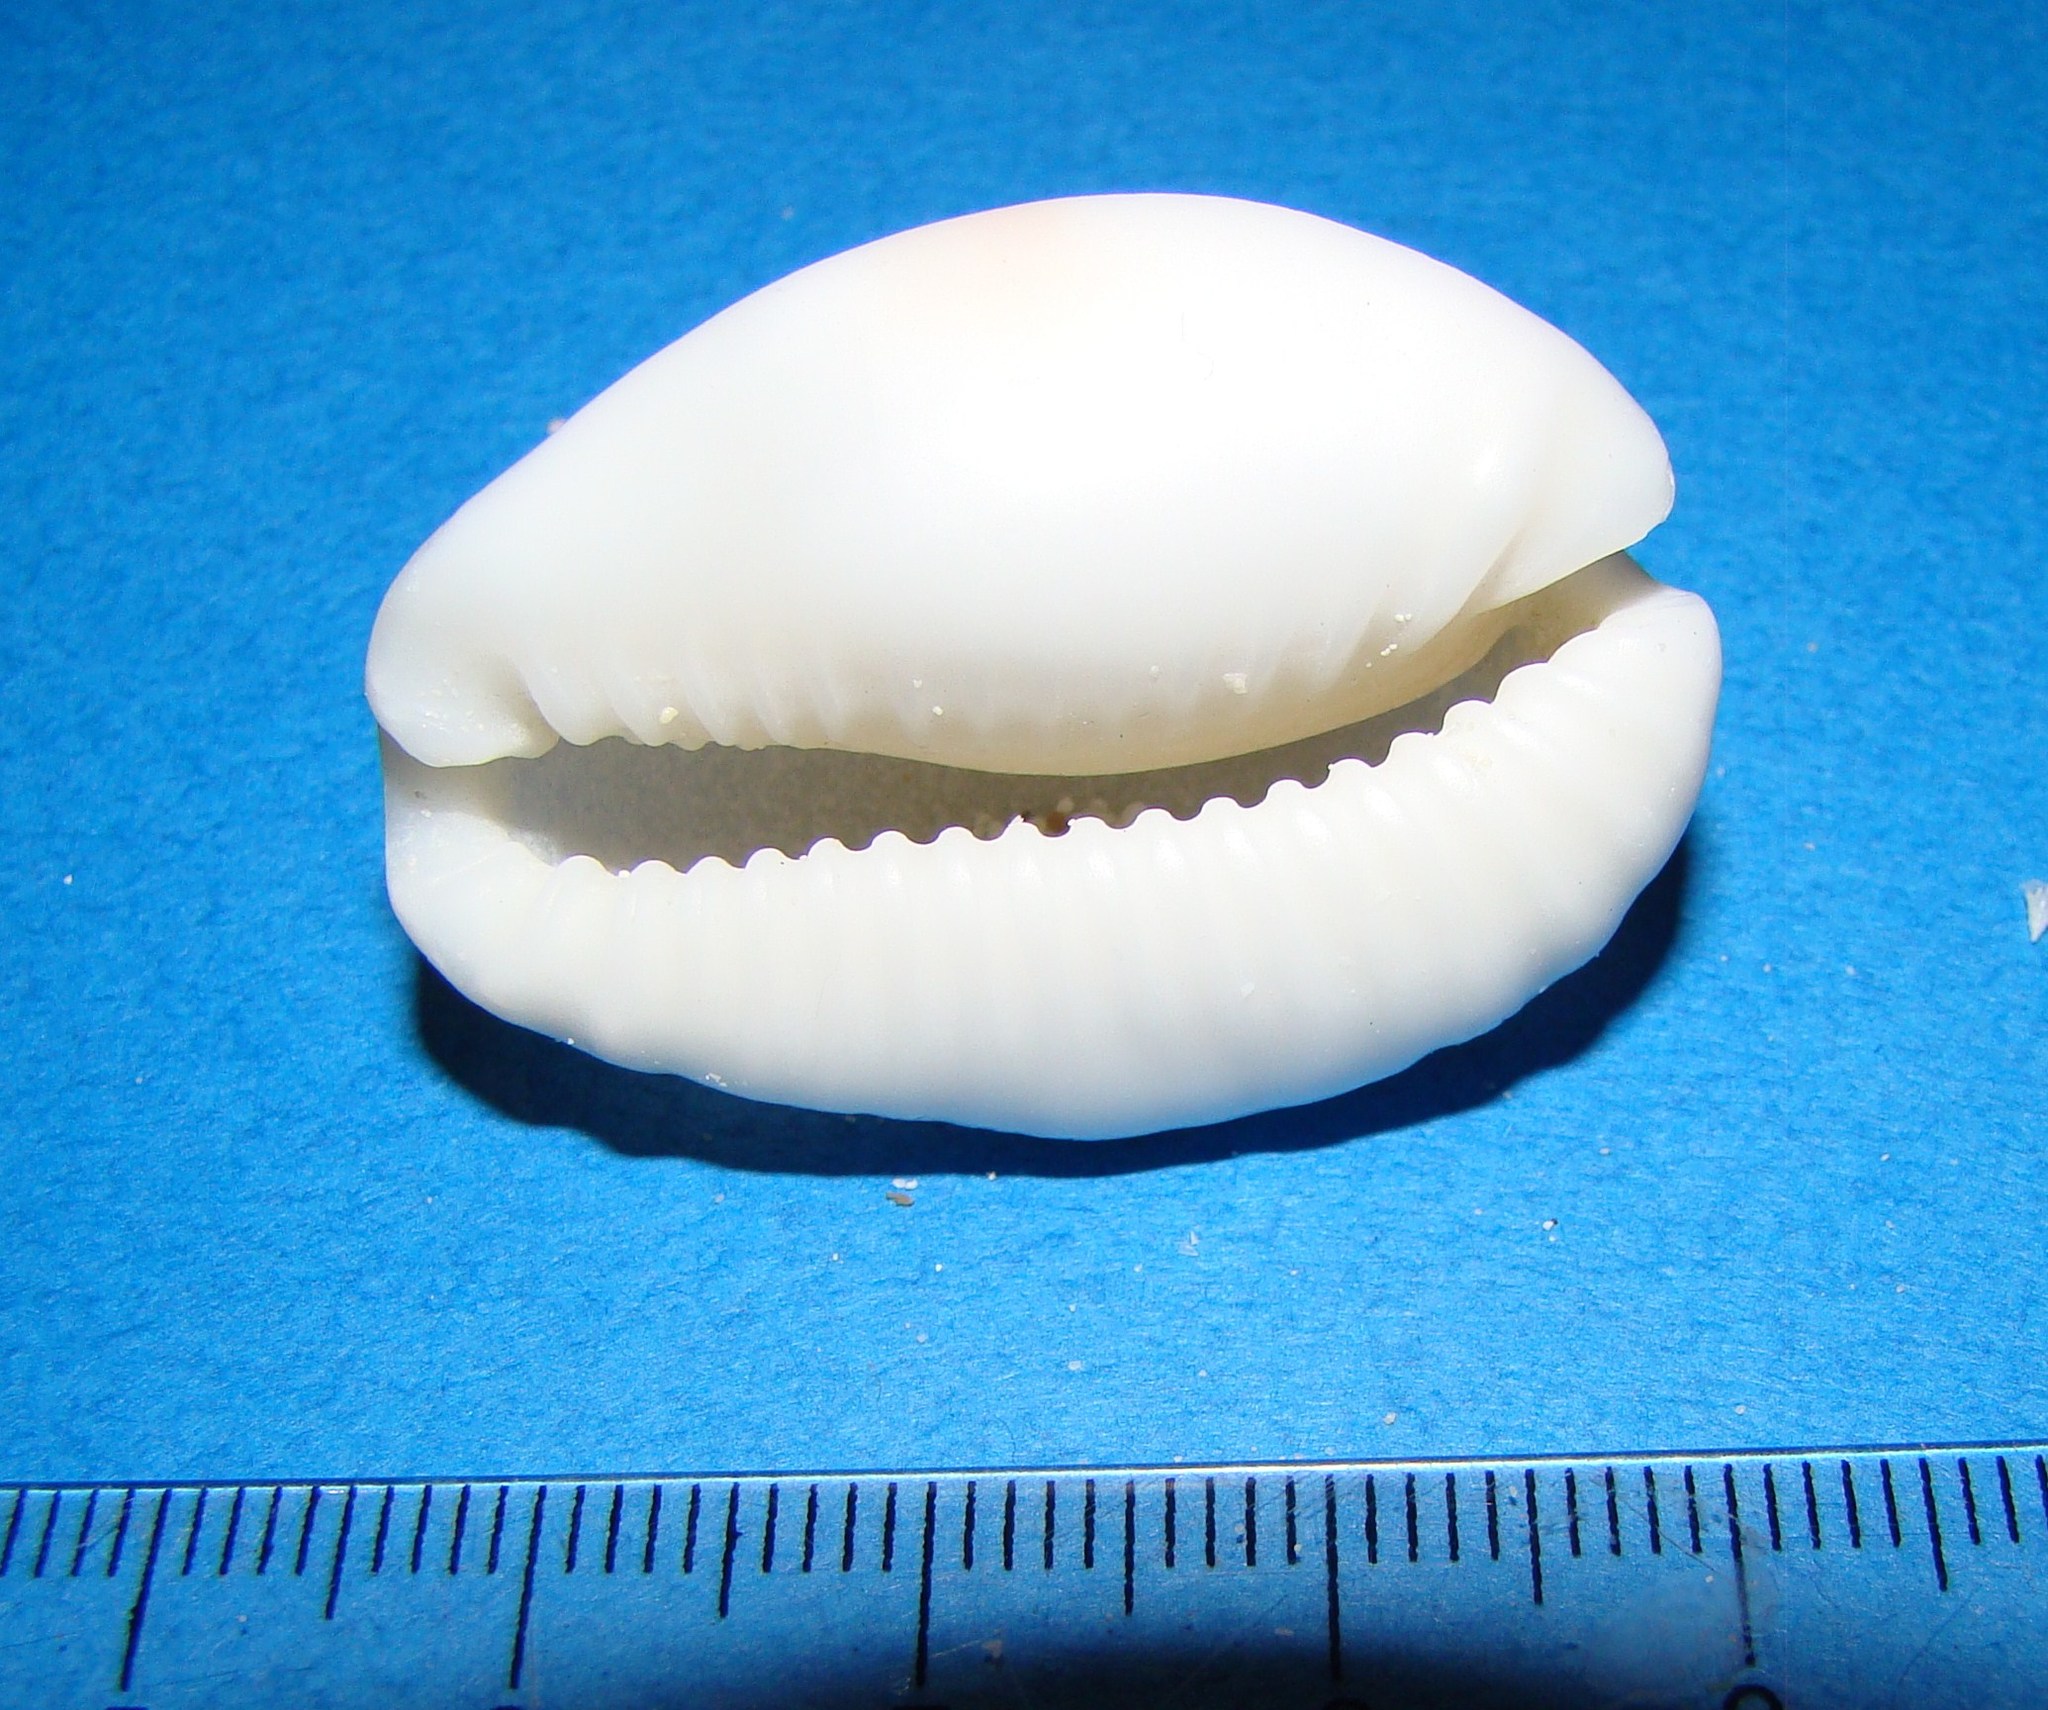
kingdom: Animalia
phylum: Mollusca
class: Gastropoda
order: Littorinimorpha
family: Cypraeidae
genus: Naria
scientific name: Naria erosa
